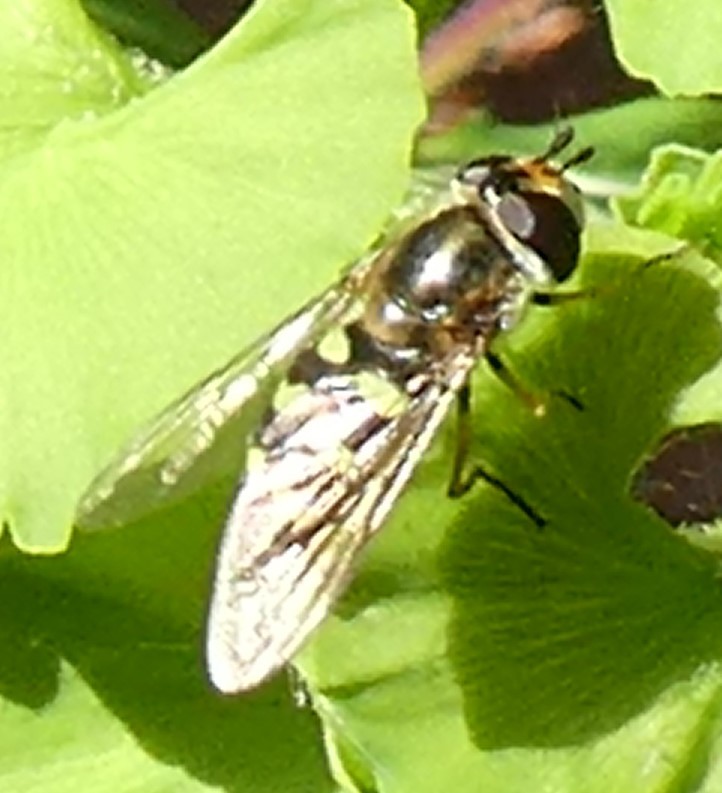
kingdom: Animalia
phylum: Arthropoda
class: Insecta
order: Diptera
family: Syrphidae
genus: Eupeodes
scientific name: Eupeodes
